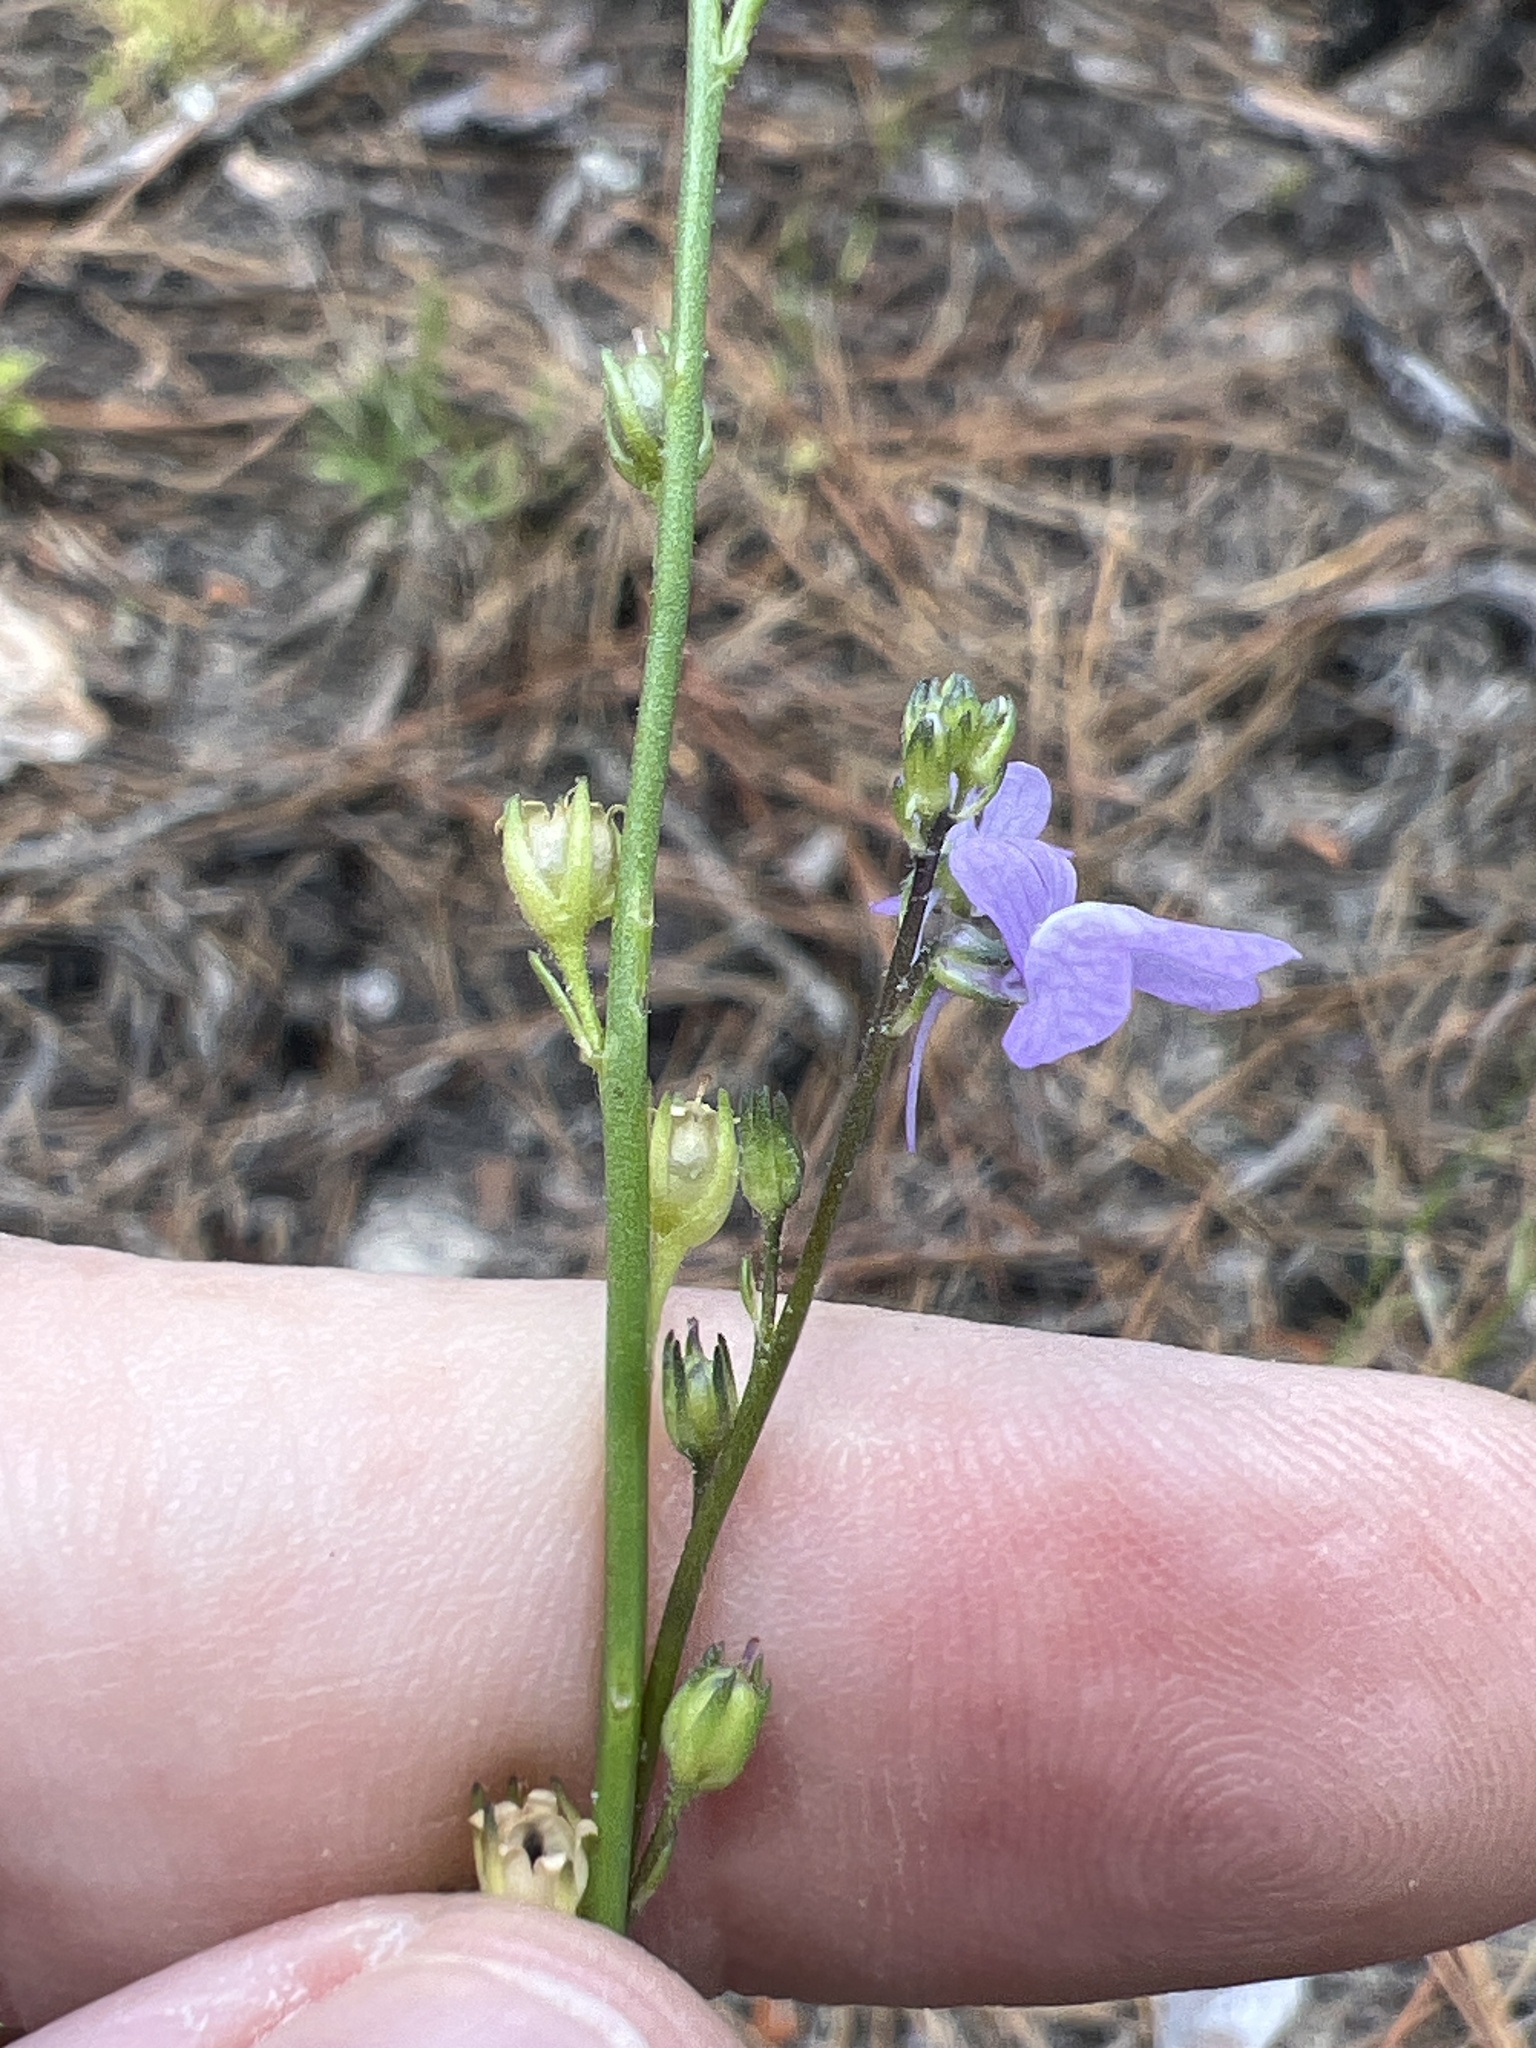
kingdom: Plantae
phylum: Tracheophyta
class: Magnoliopsida
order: Lamiales
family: Plantaginaceae
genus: Nuttallanthus
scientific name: Nuttallanthus canadensis
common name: Blue toadflax
